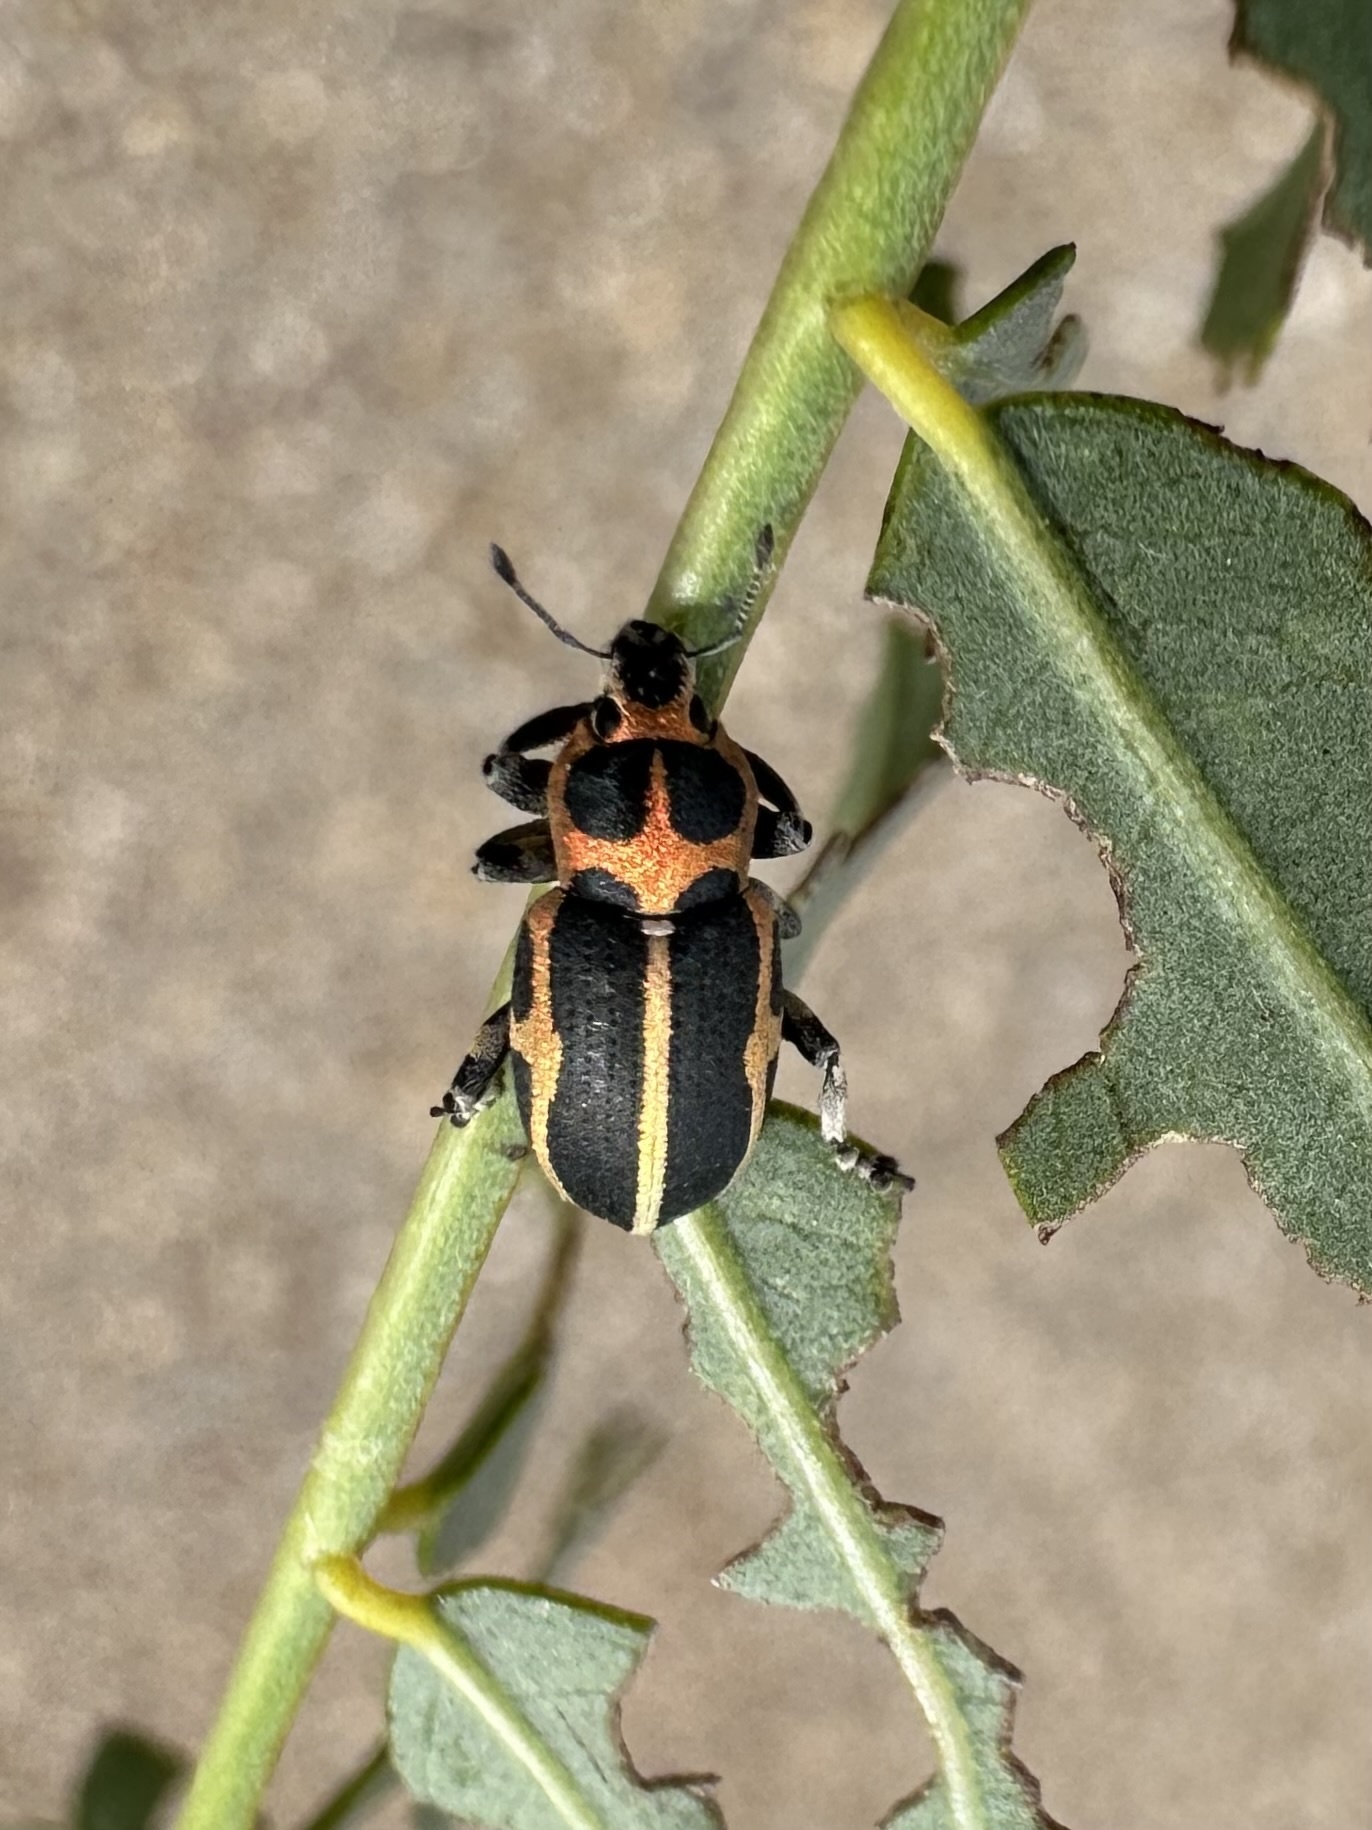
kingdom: Animalia
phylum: Arthropoda
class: Insecta
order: Coleoptera
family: Curculionidae
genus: Eudiagogus
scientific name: Eudiagogus pulcher
